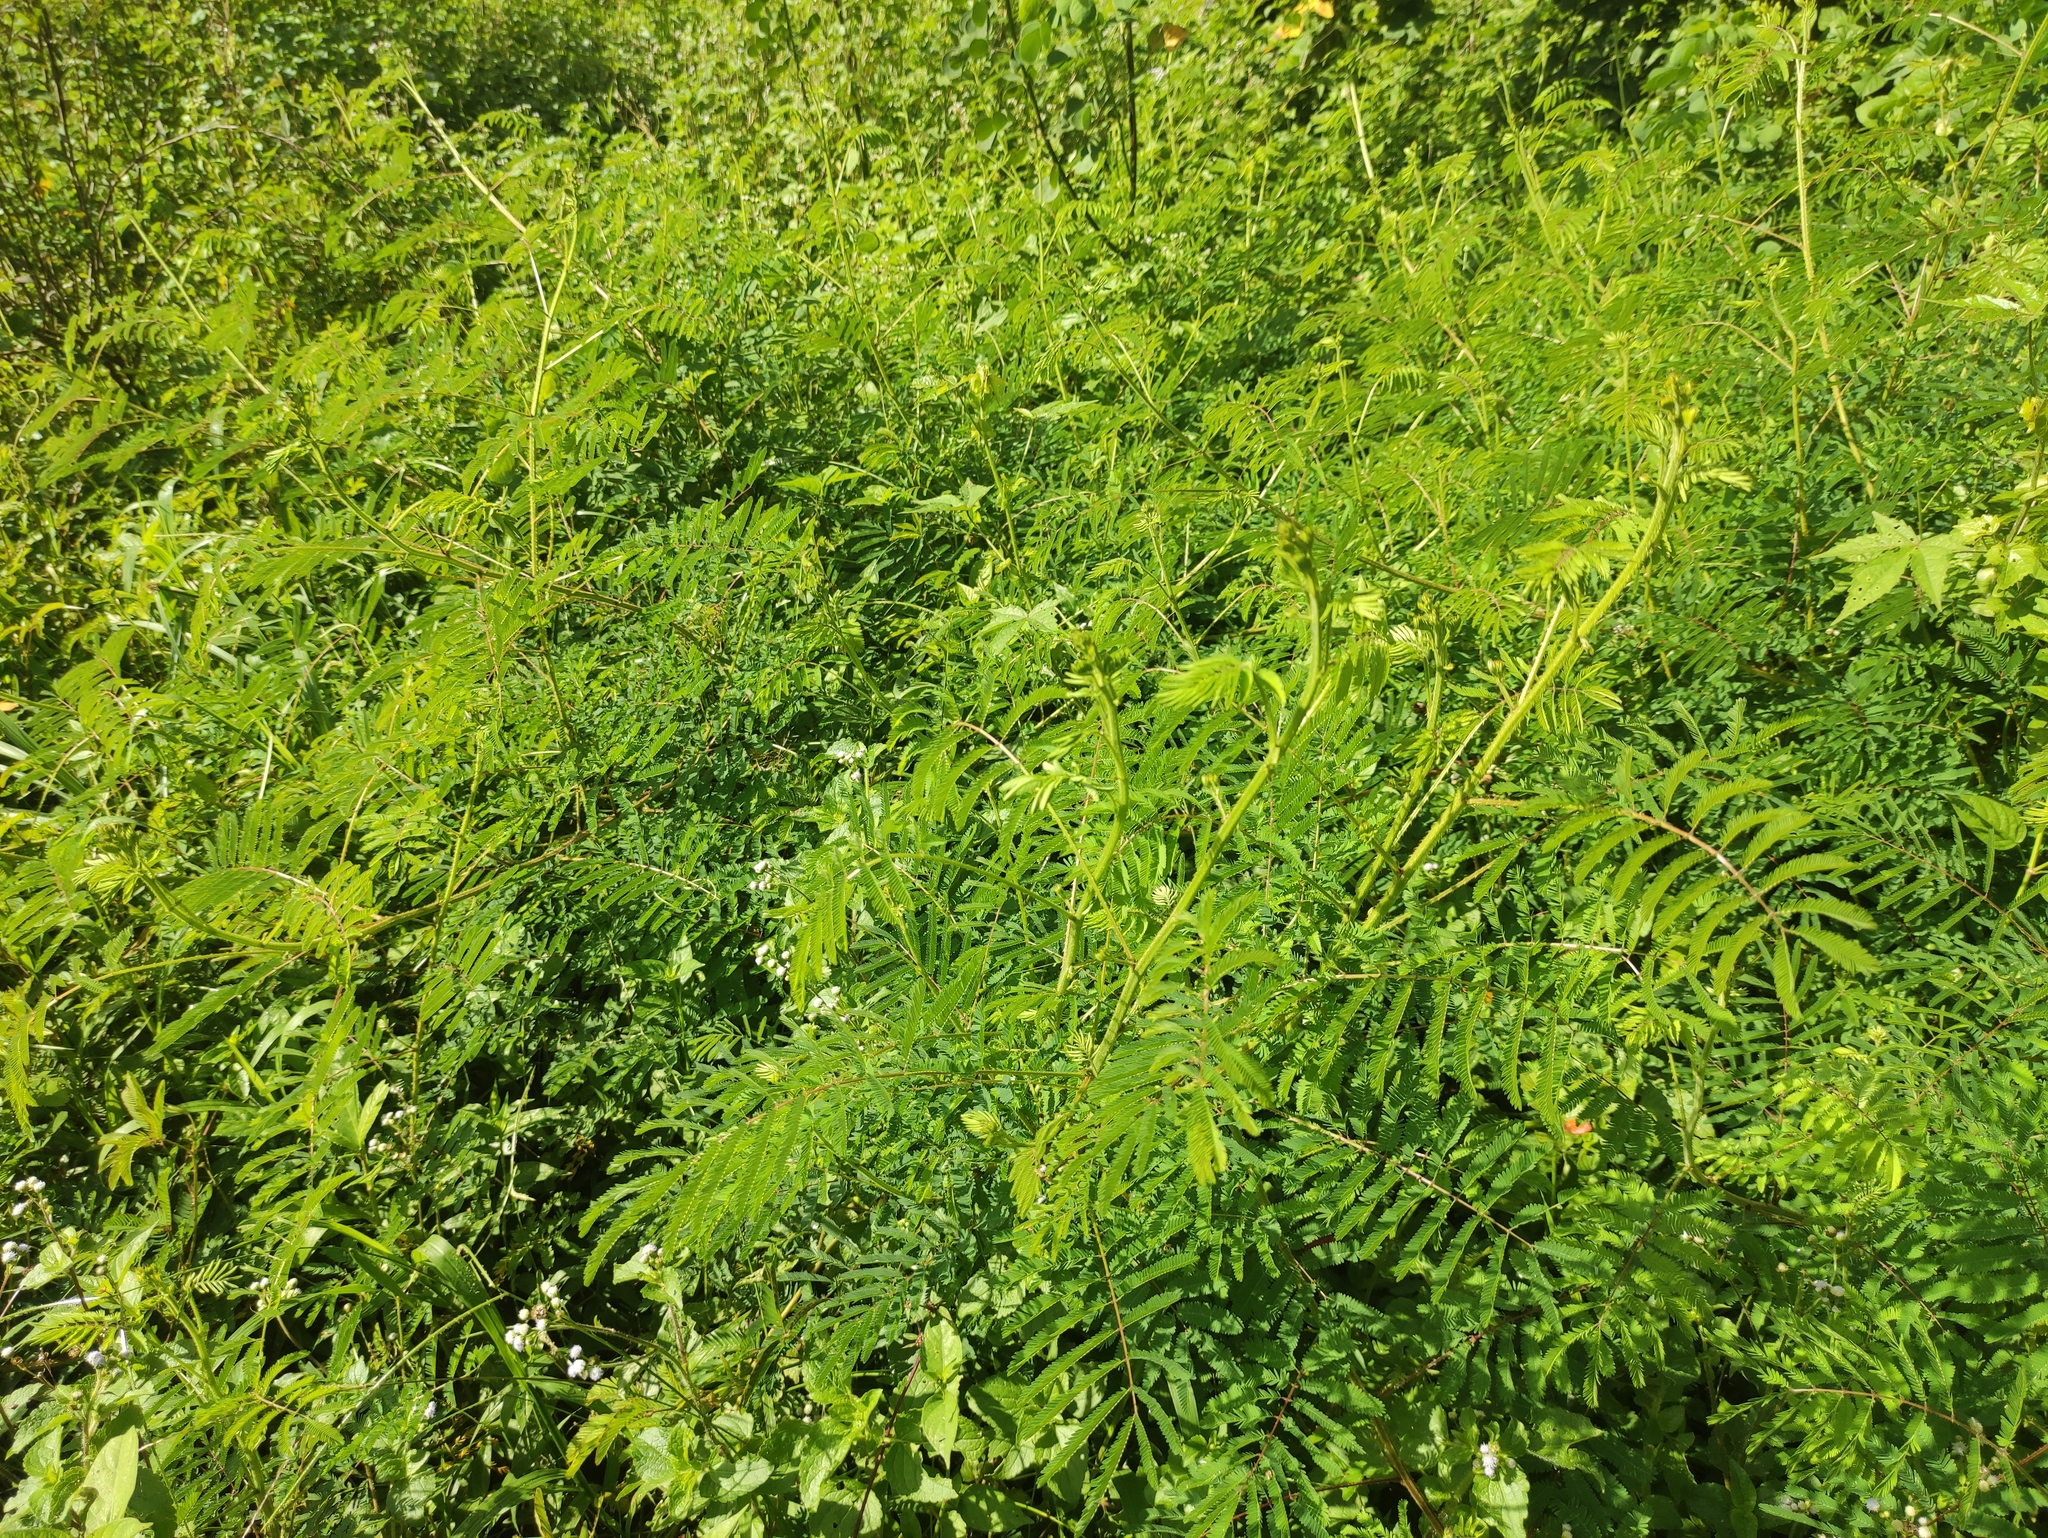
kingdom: Plantae
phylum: Tracheophyta
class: Magnoliopsida
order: Fabales
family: Fabaceae
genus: Mimosa
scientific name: Mimosa diplotricha
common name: Giant sensitive-plant
